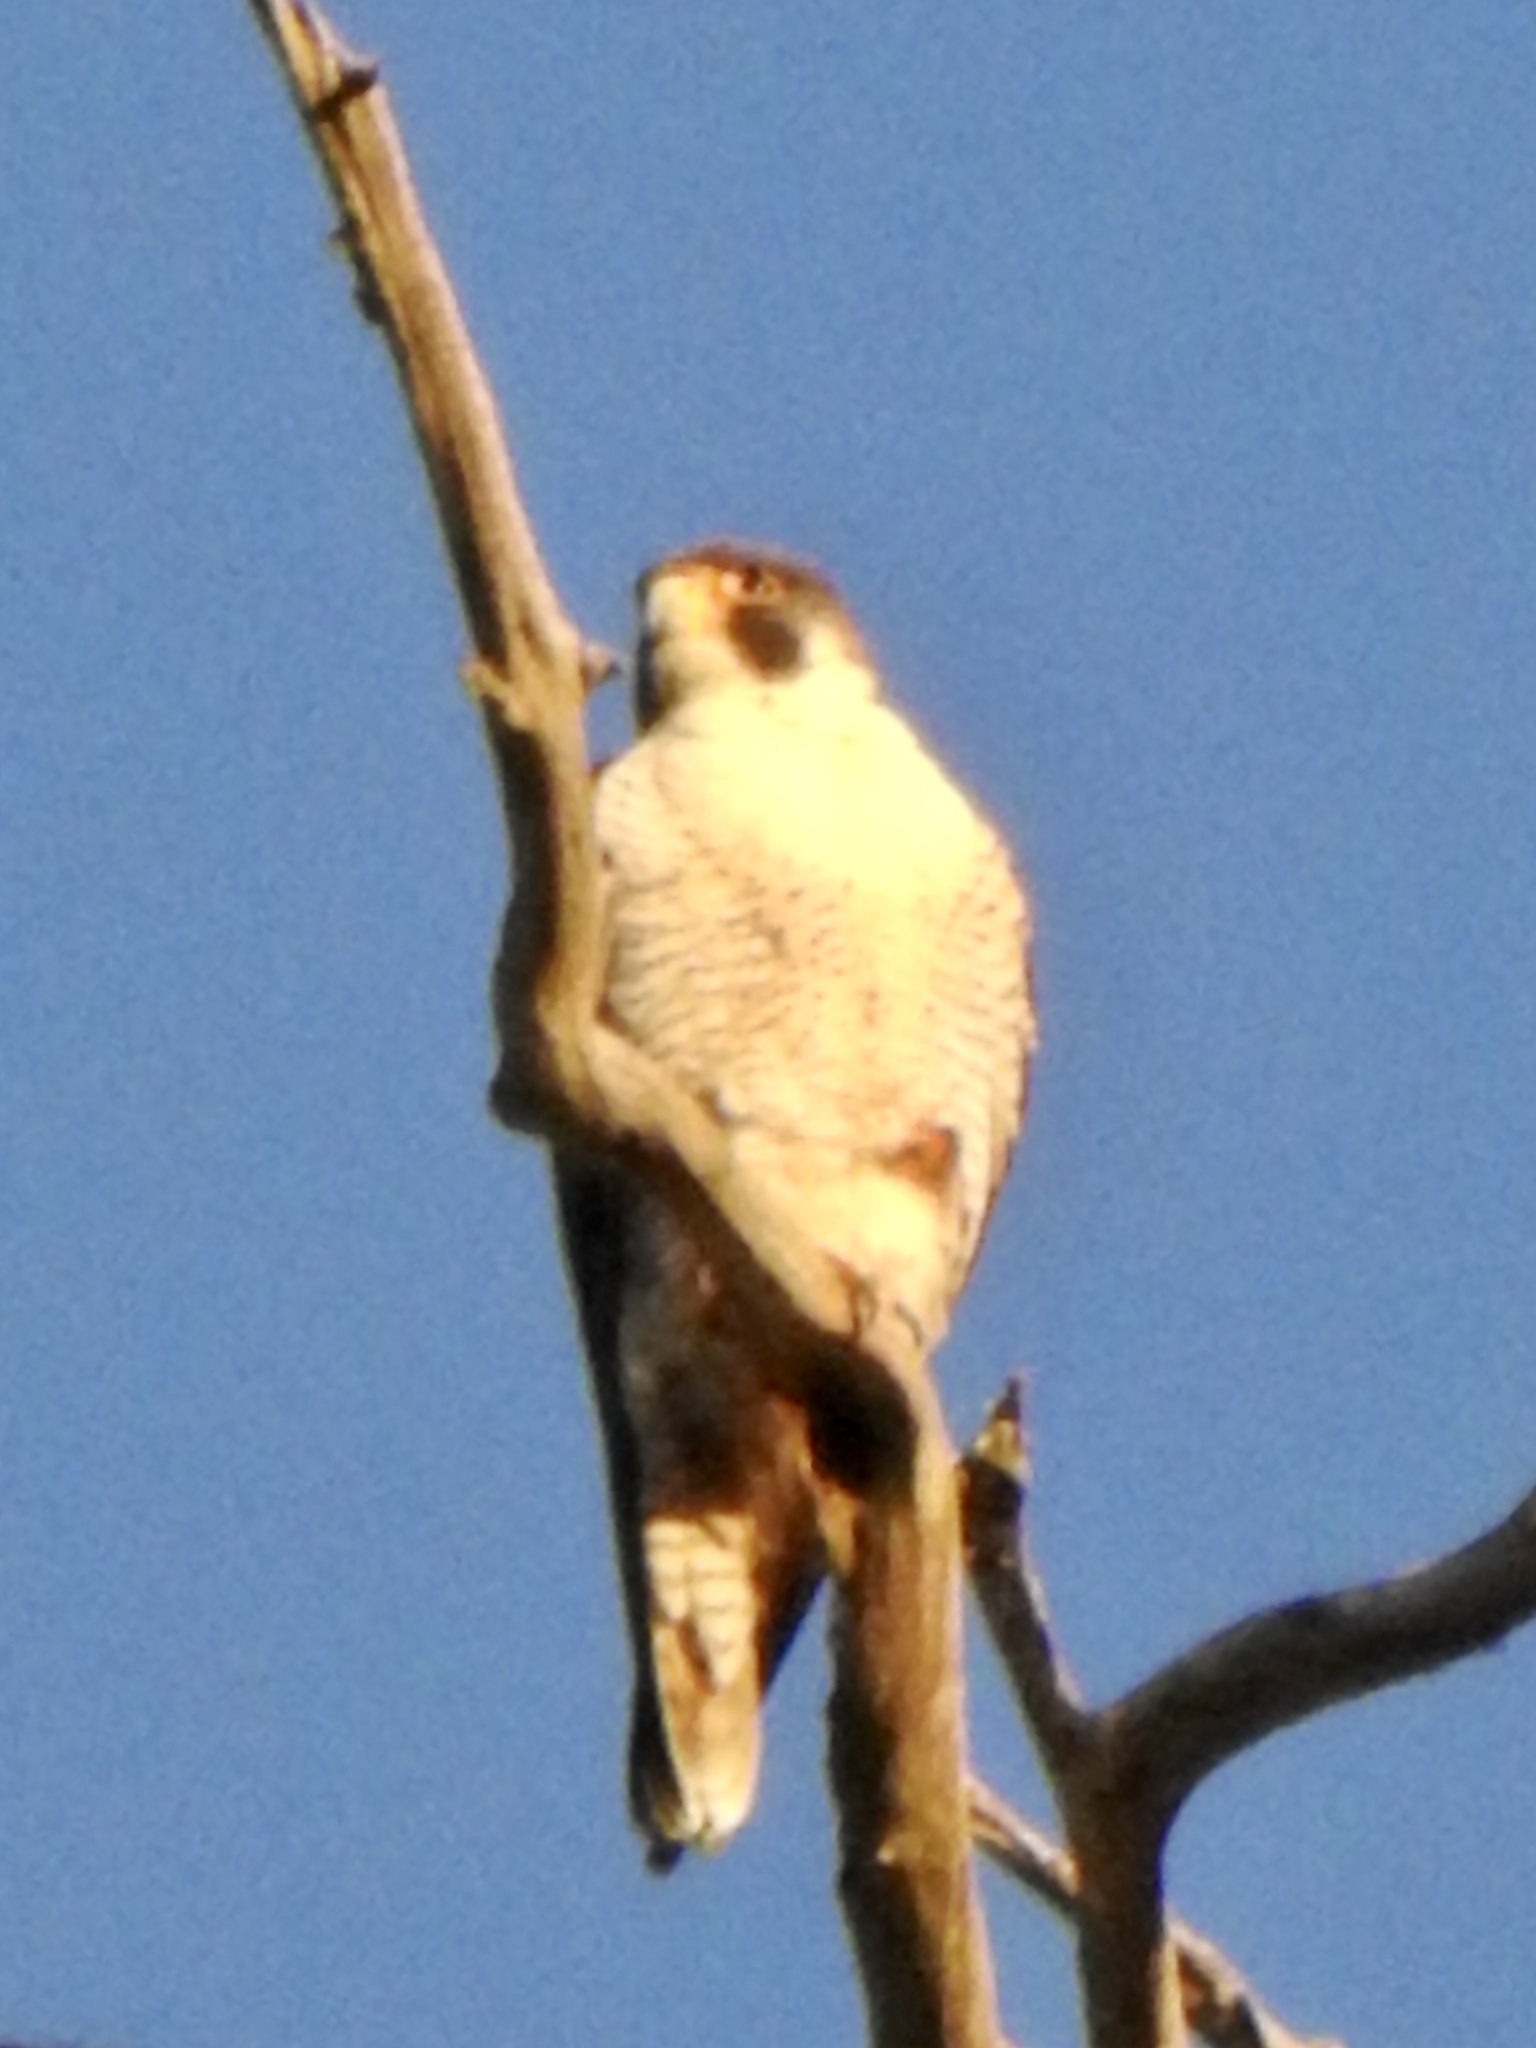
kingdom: Animalia
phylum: Chordata
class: Aves
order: Falconiformes
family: Falconidae
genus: Falco
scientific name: Falco peregrinus
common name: Peregrine falcon
